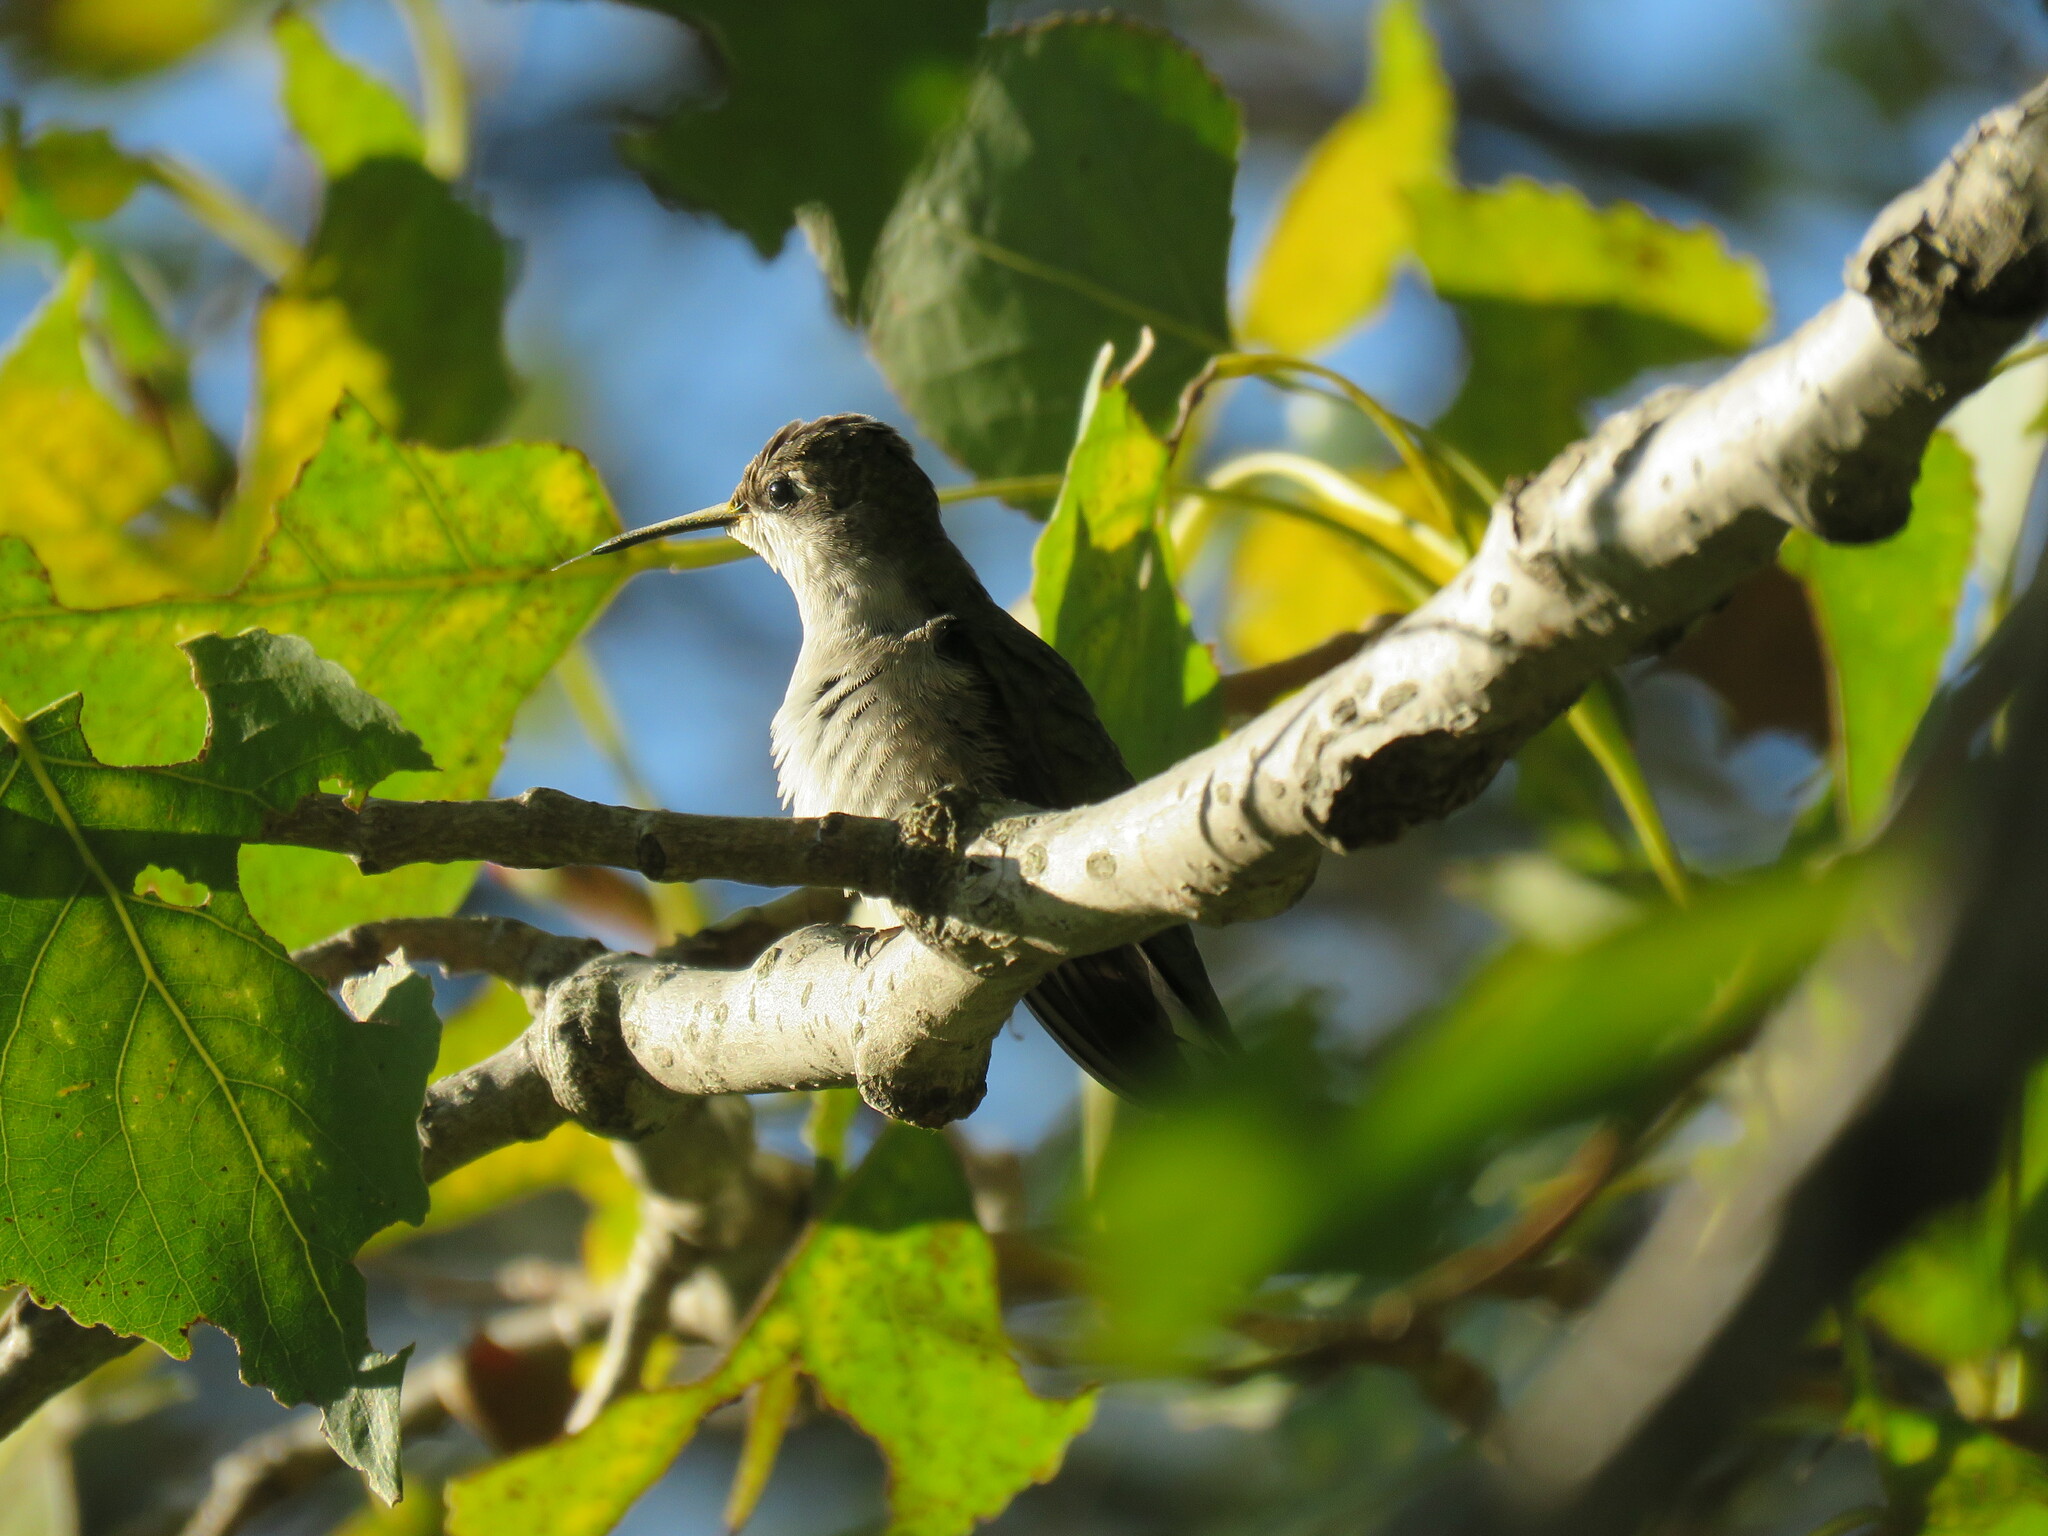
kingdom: Animalia
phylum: Chordata
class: Aves
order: Apodiformes
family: Trochilidae
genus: Archilochus
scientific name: Archilochus colubris
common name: Ruby-throated hummingbird
